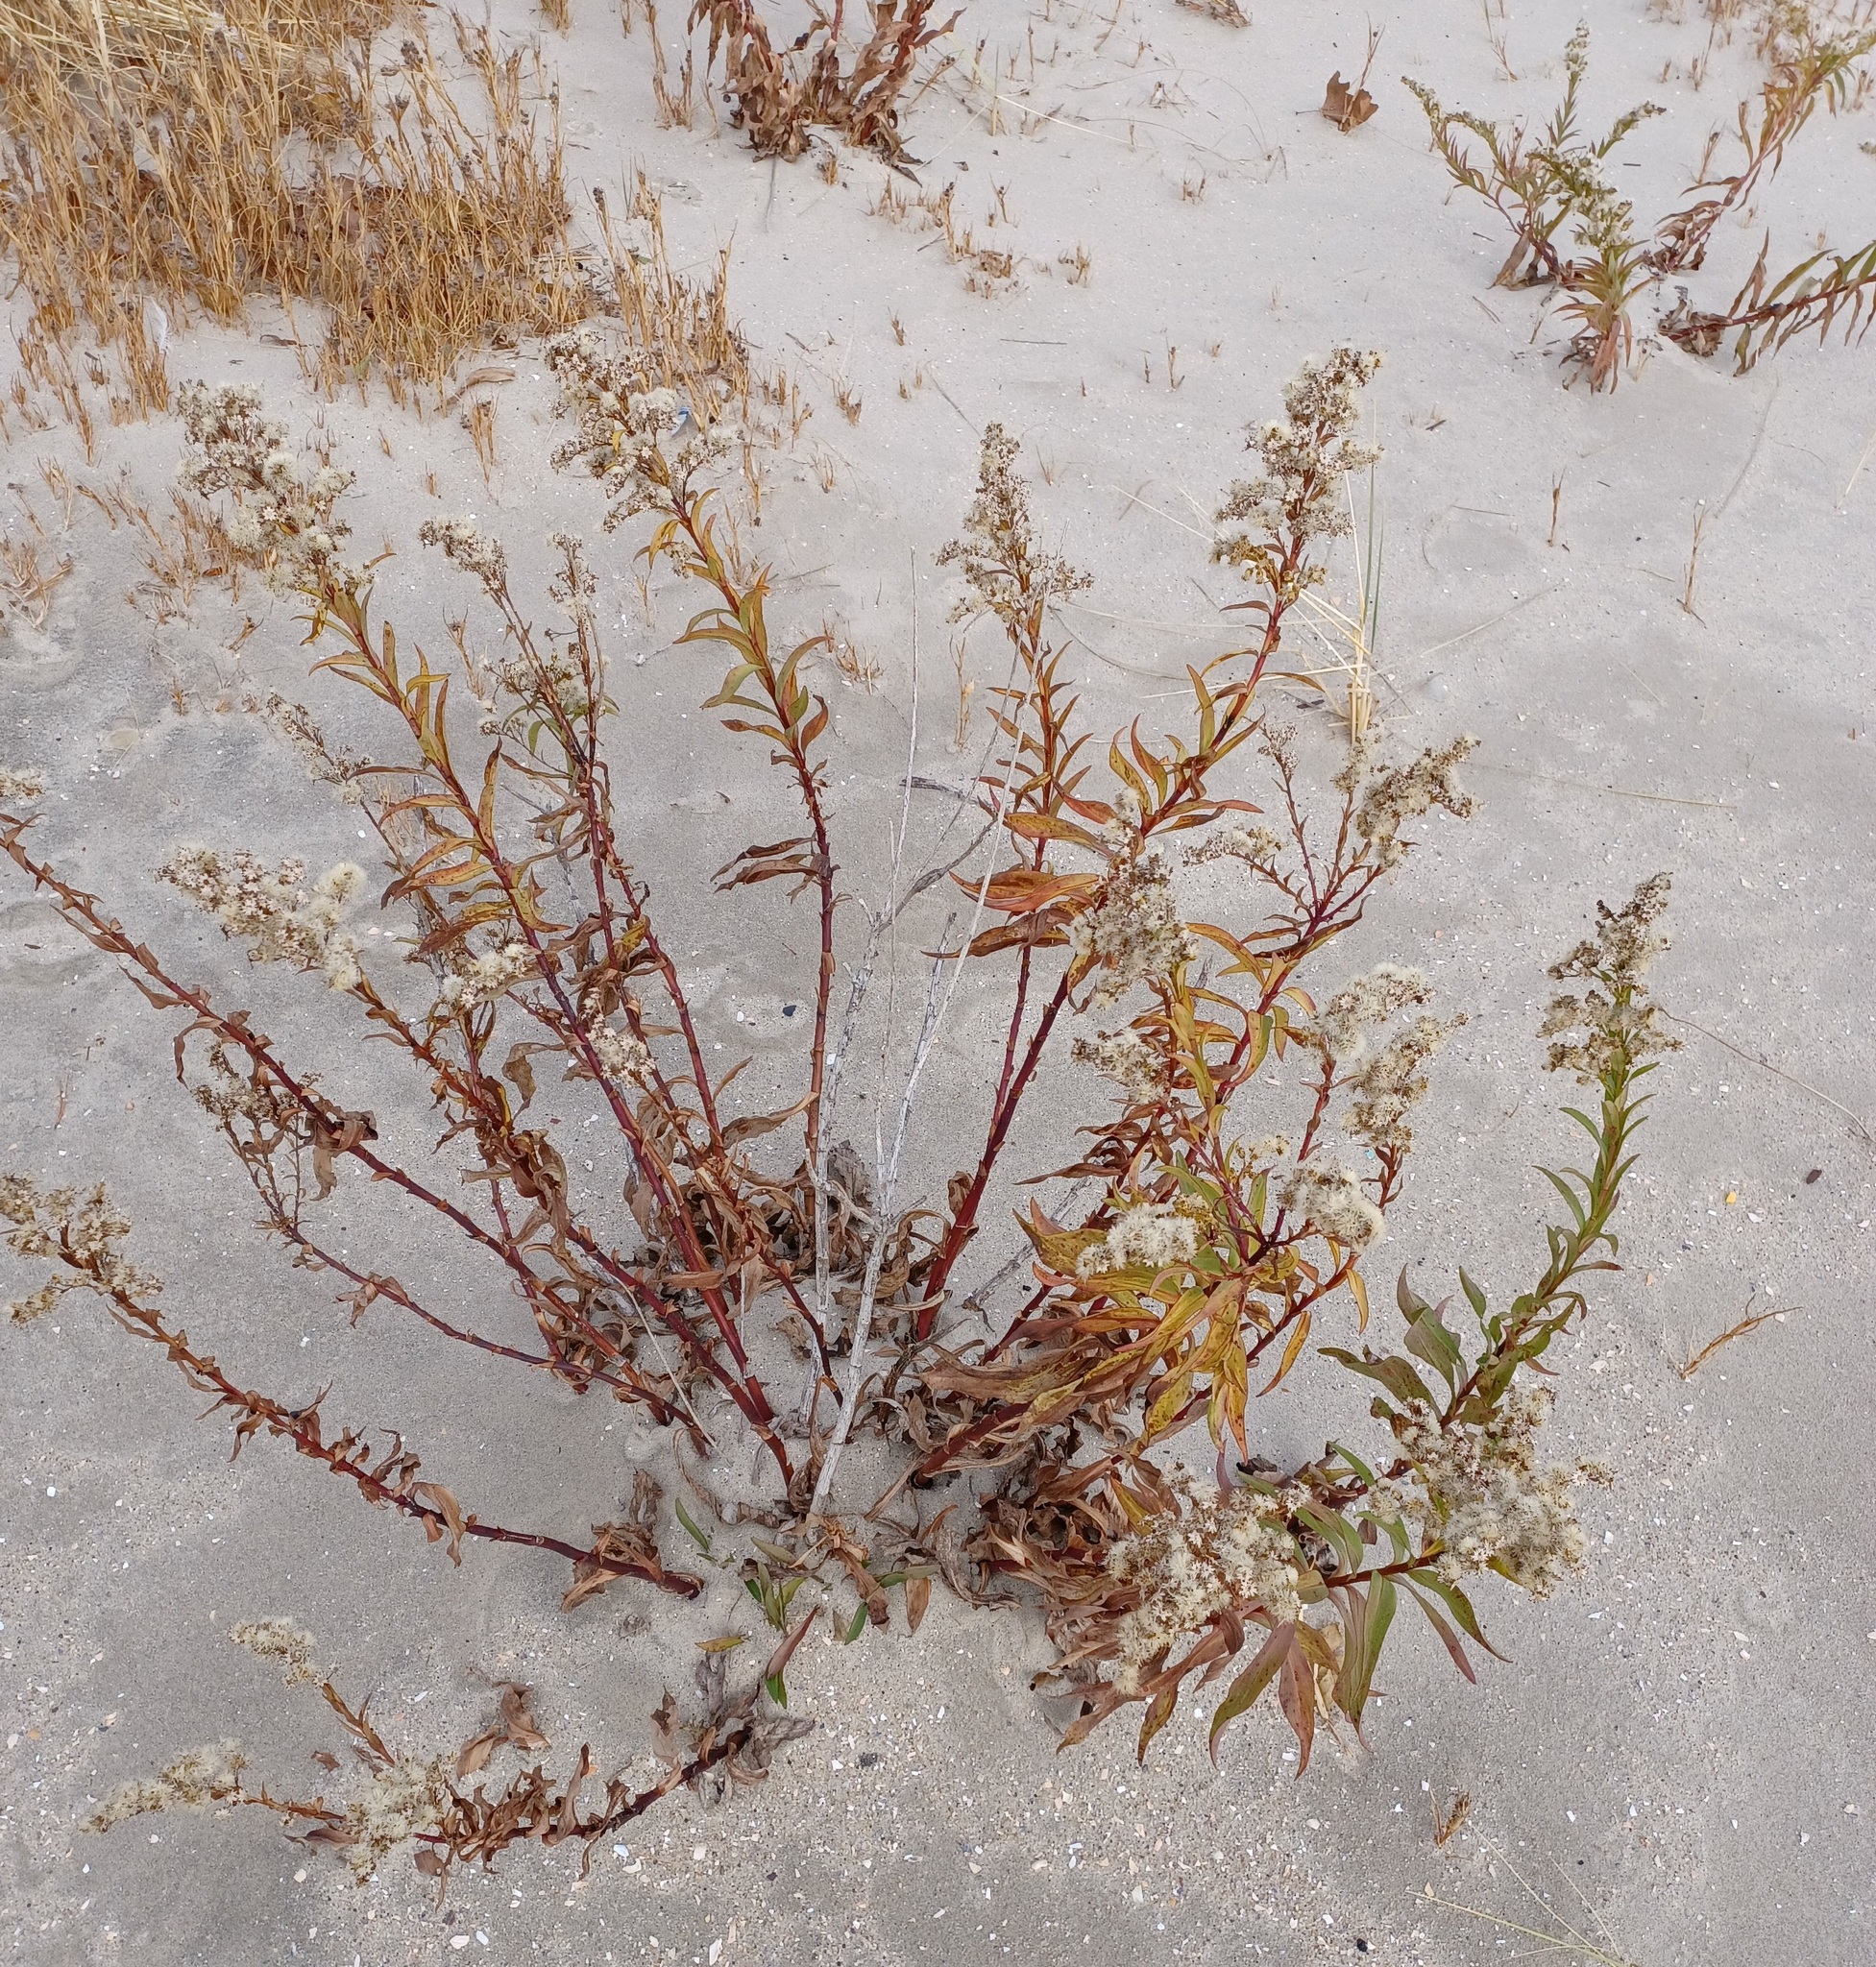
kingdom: Plantae
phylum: Tracheophyta
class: Magnoliopsida
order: Asterales
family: Asteraceae
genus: Solidago
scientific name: Solidago sempervirens
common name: Salt-marsh goldenrod
